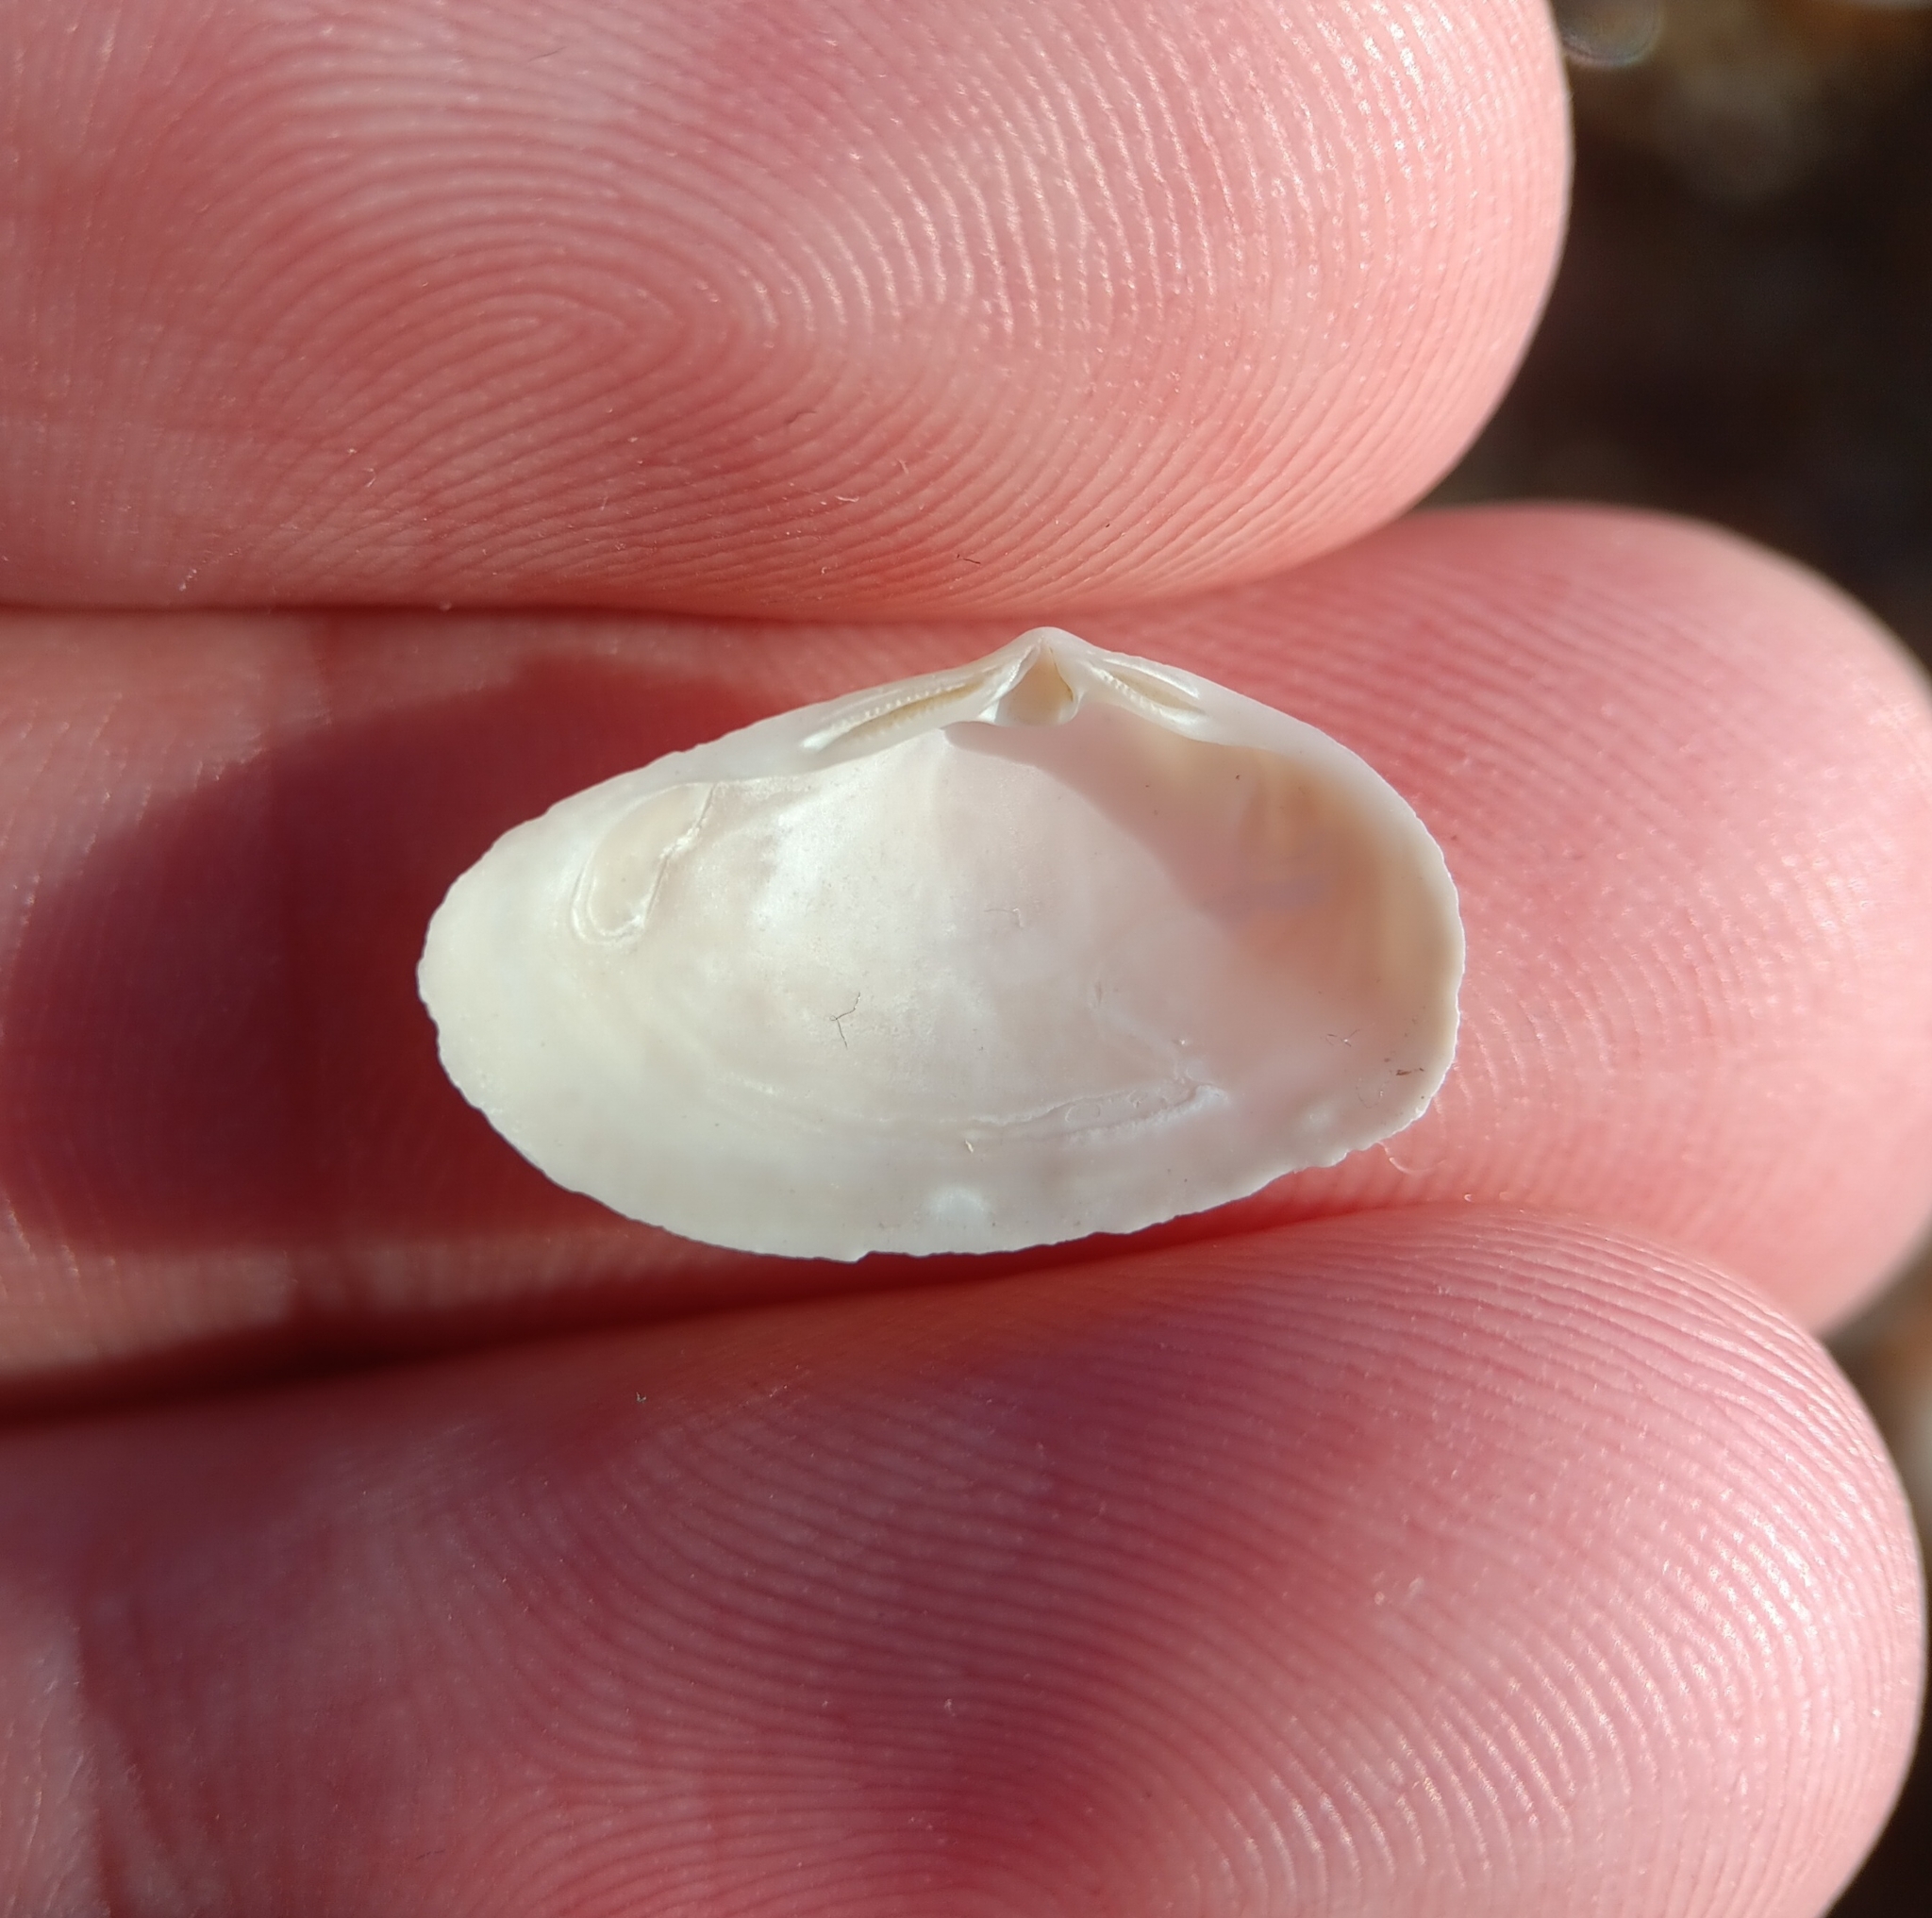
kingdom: Animalia
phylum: Mollusca
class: Bivalvia
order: Venerida
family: Mesodesmatidae
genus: Mesodesma
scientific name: Mesodesma arctatum
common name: Compressed clam
